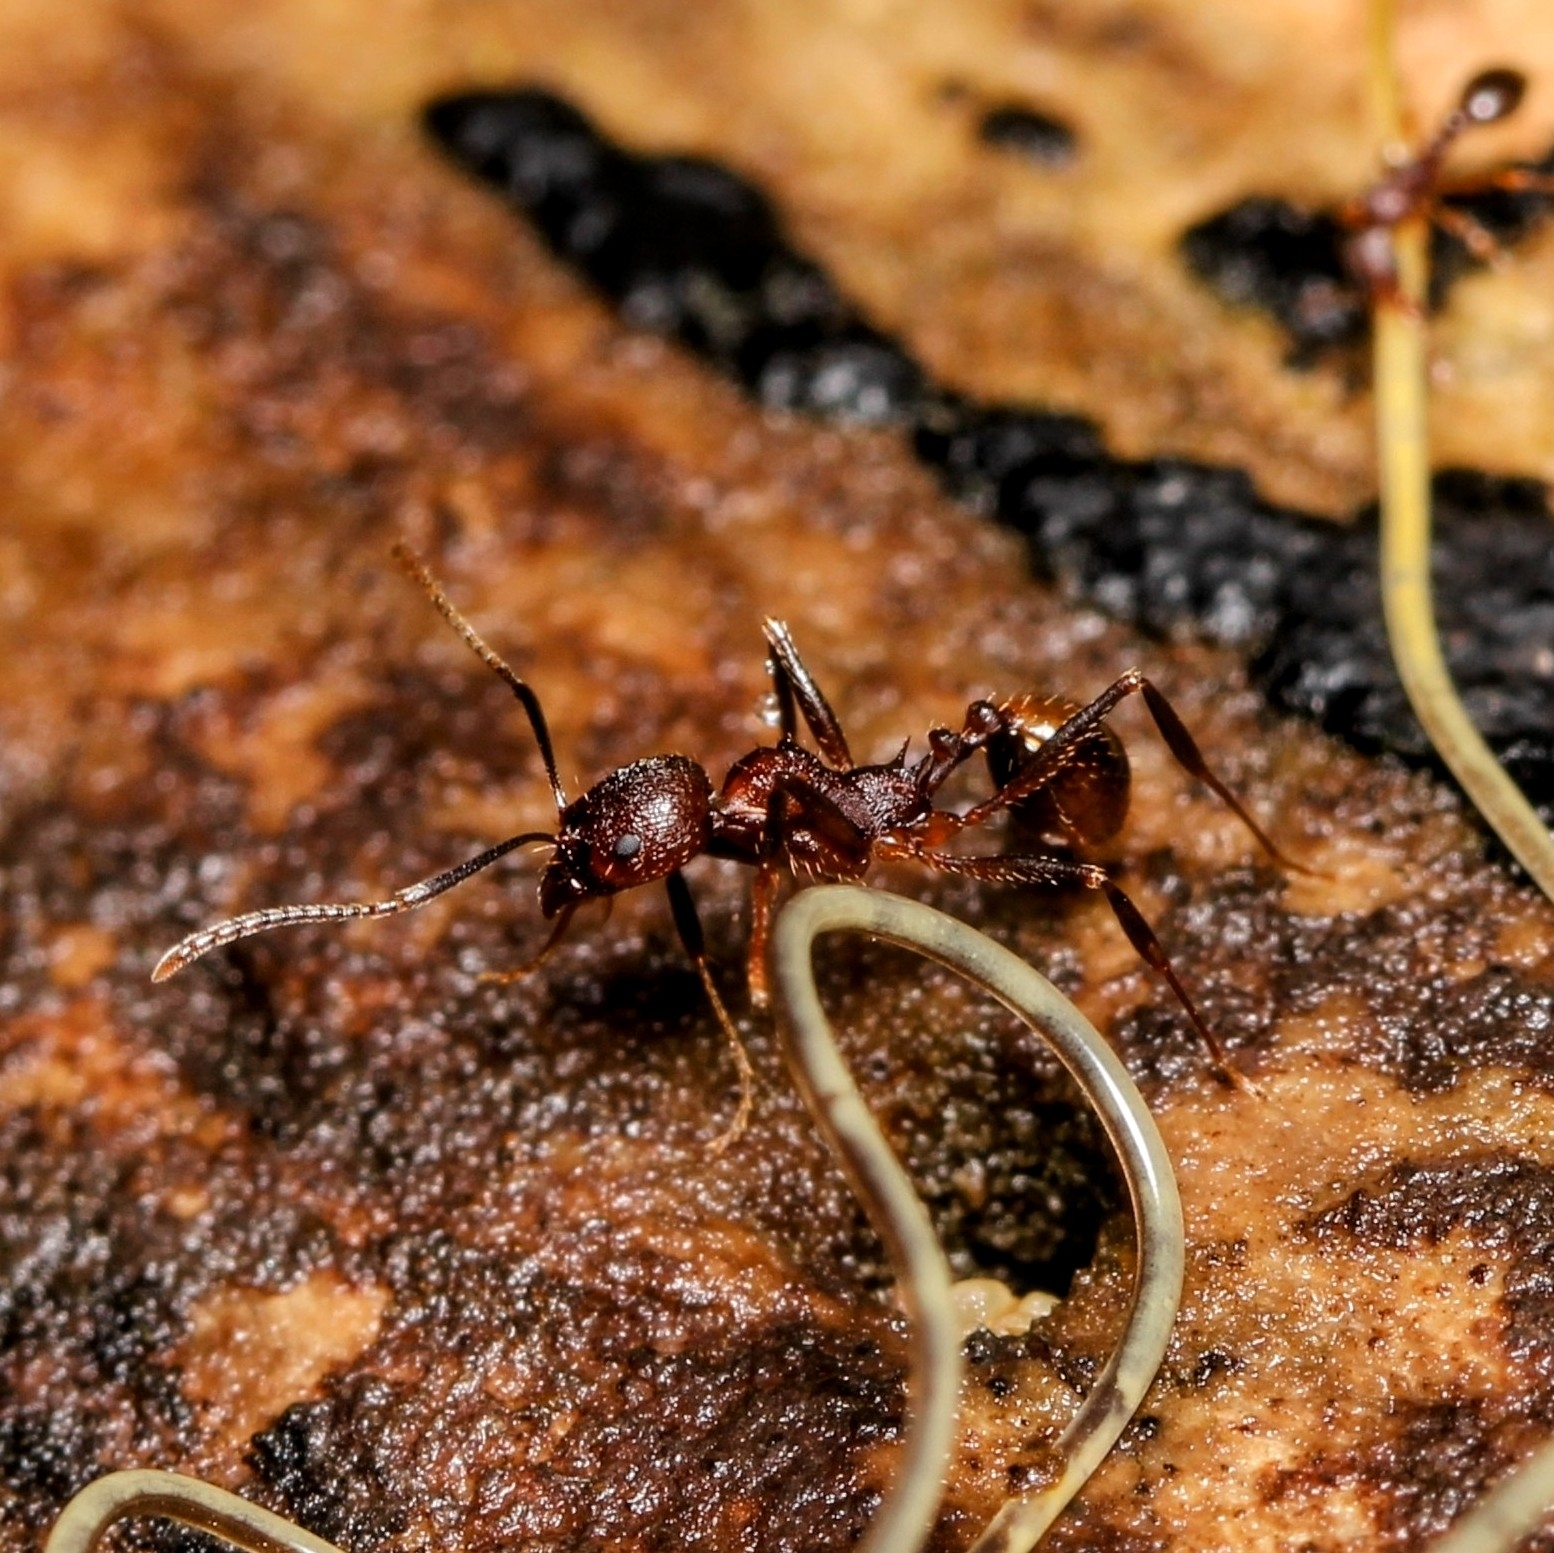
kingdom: Animalia
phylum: Arthropoda
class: Insecta
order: Hymenoptera
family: Formicidae
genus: Aphaenogaster
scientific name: Aphaenogaster fulva
